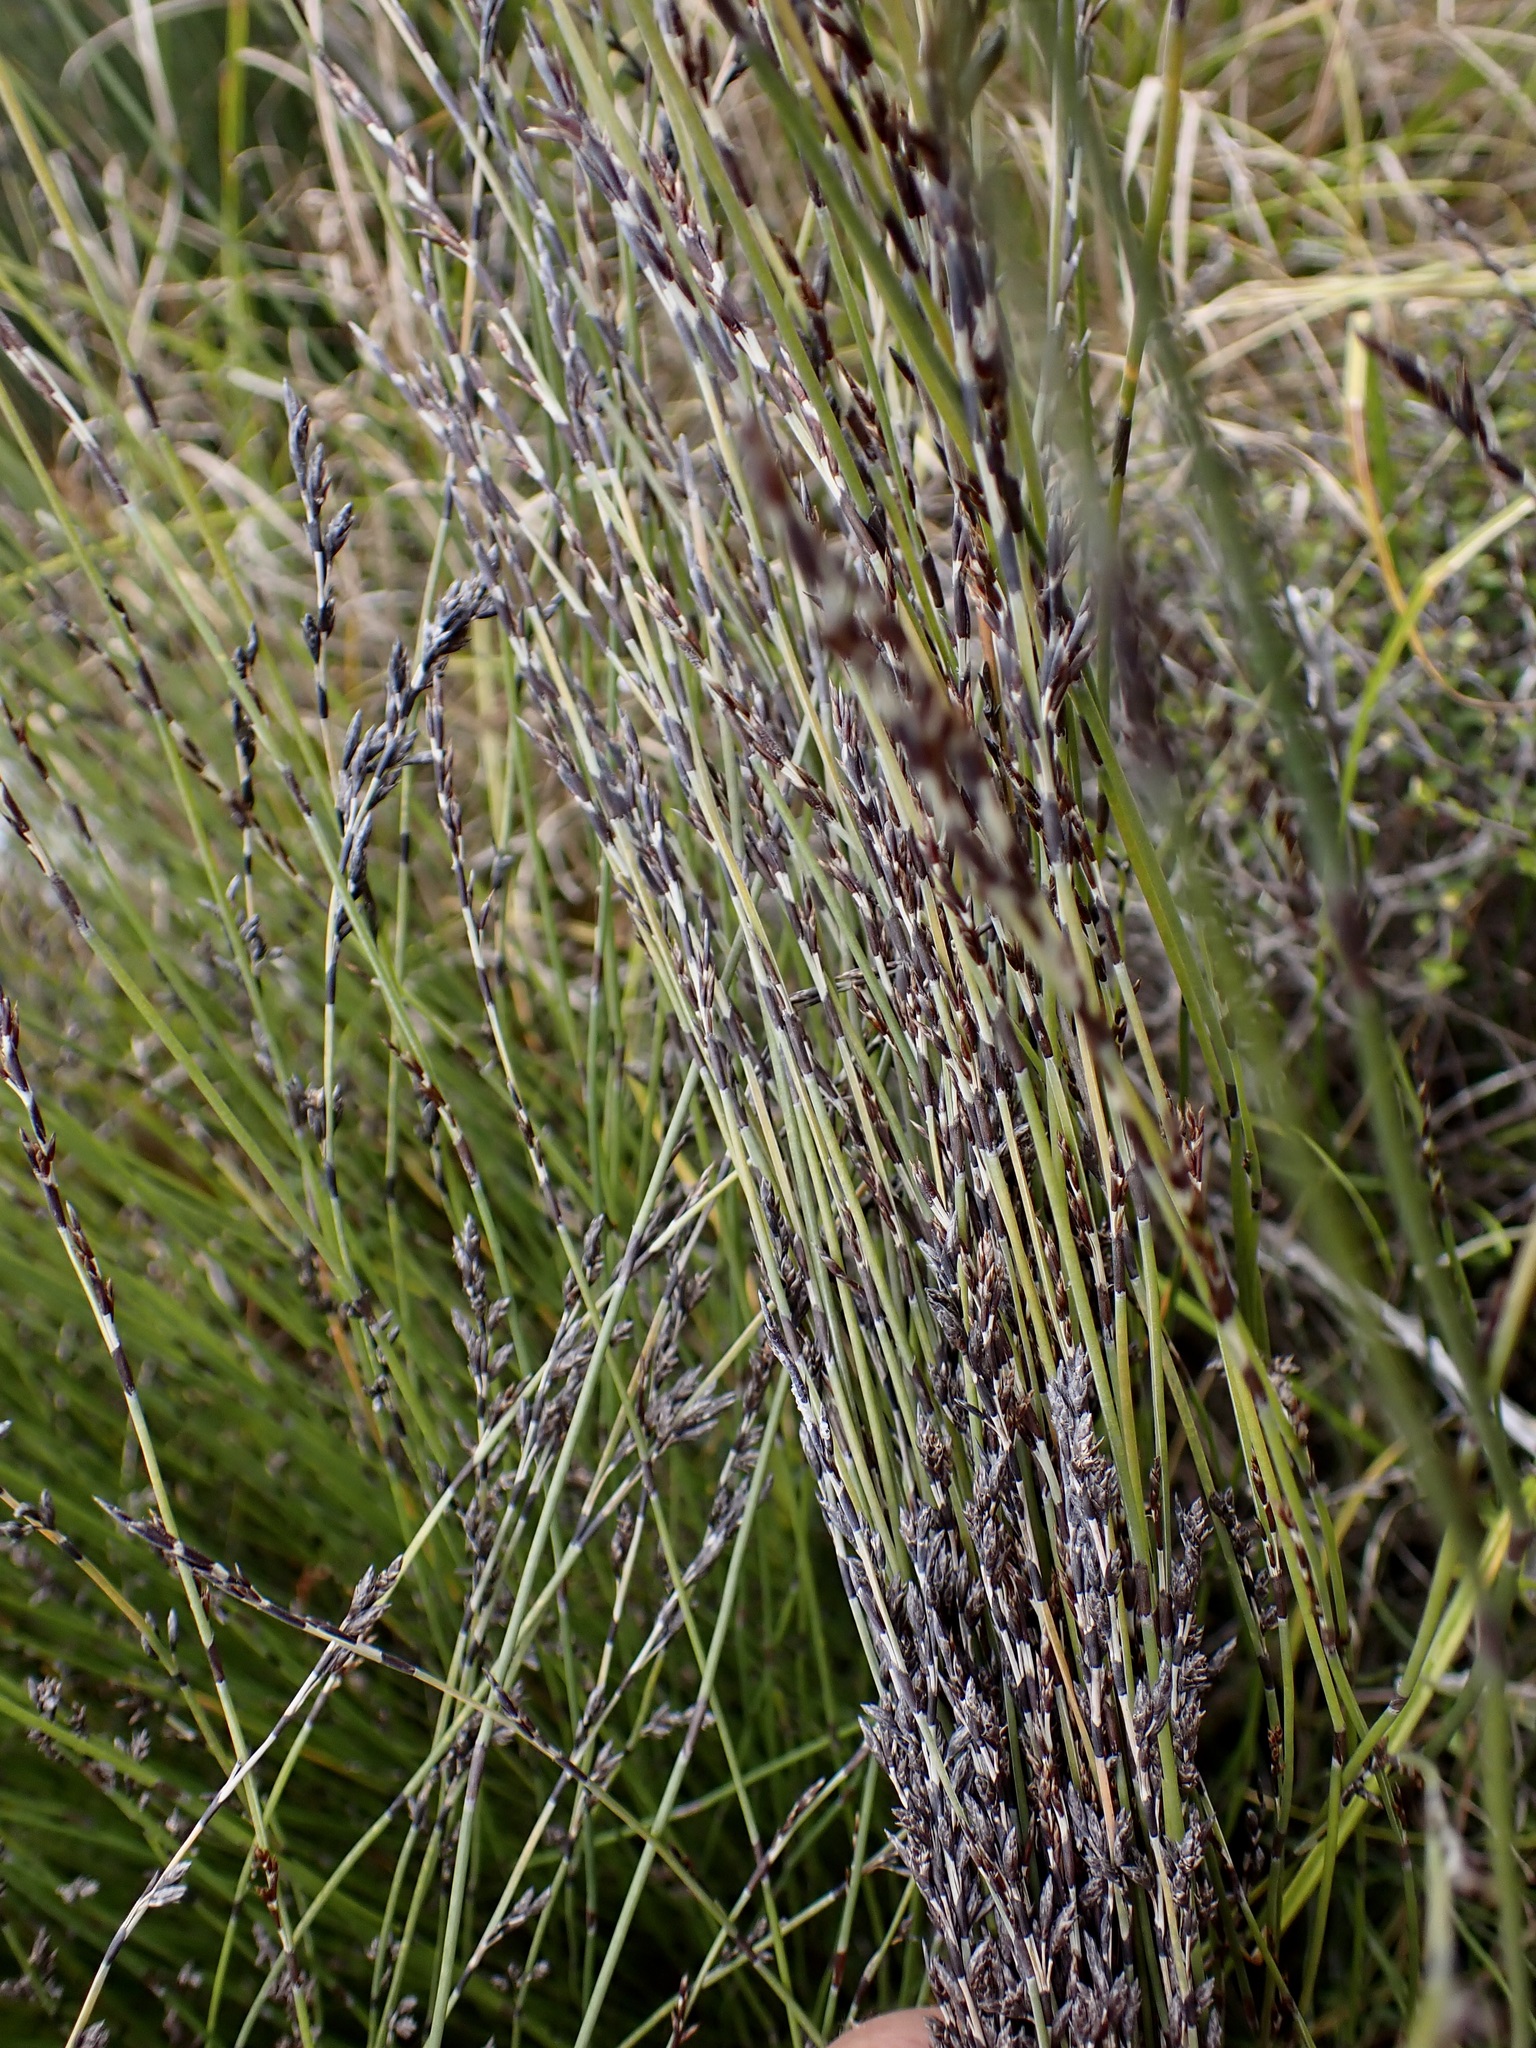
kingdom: Plantae
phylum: Tracheophyta
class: Liliopsida
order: Poales
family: Restionaceae
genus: Apodasmia
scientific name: Apodasmia similis
